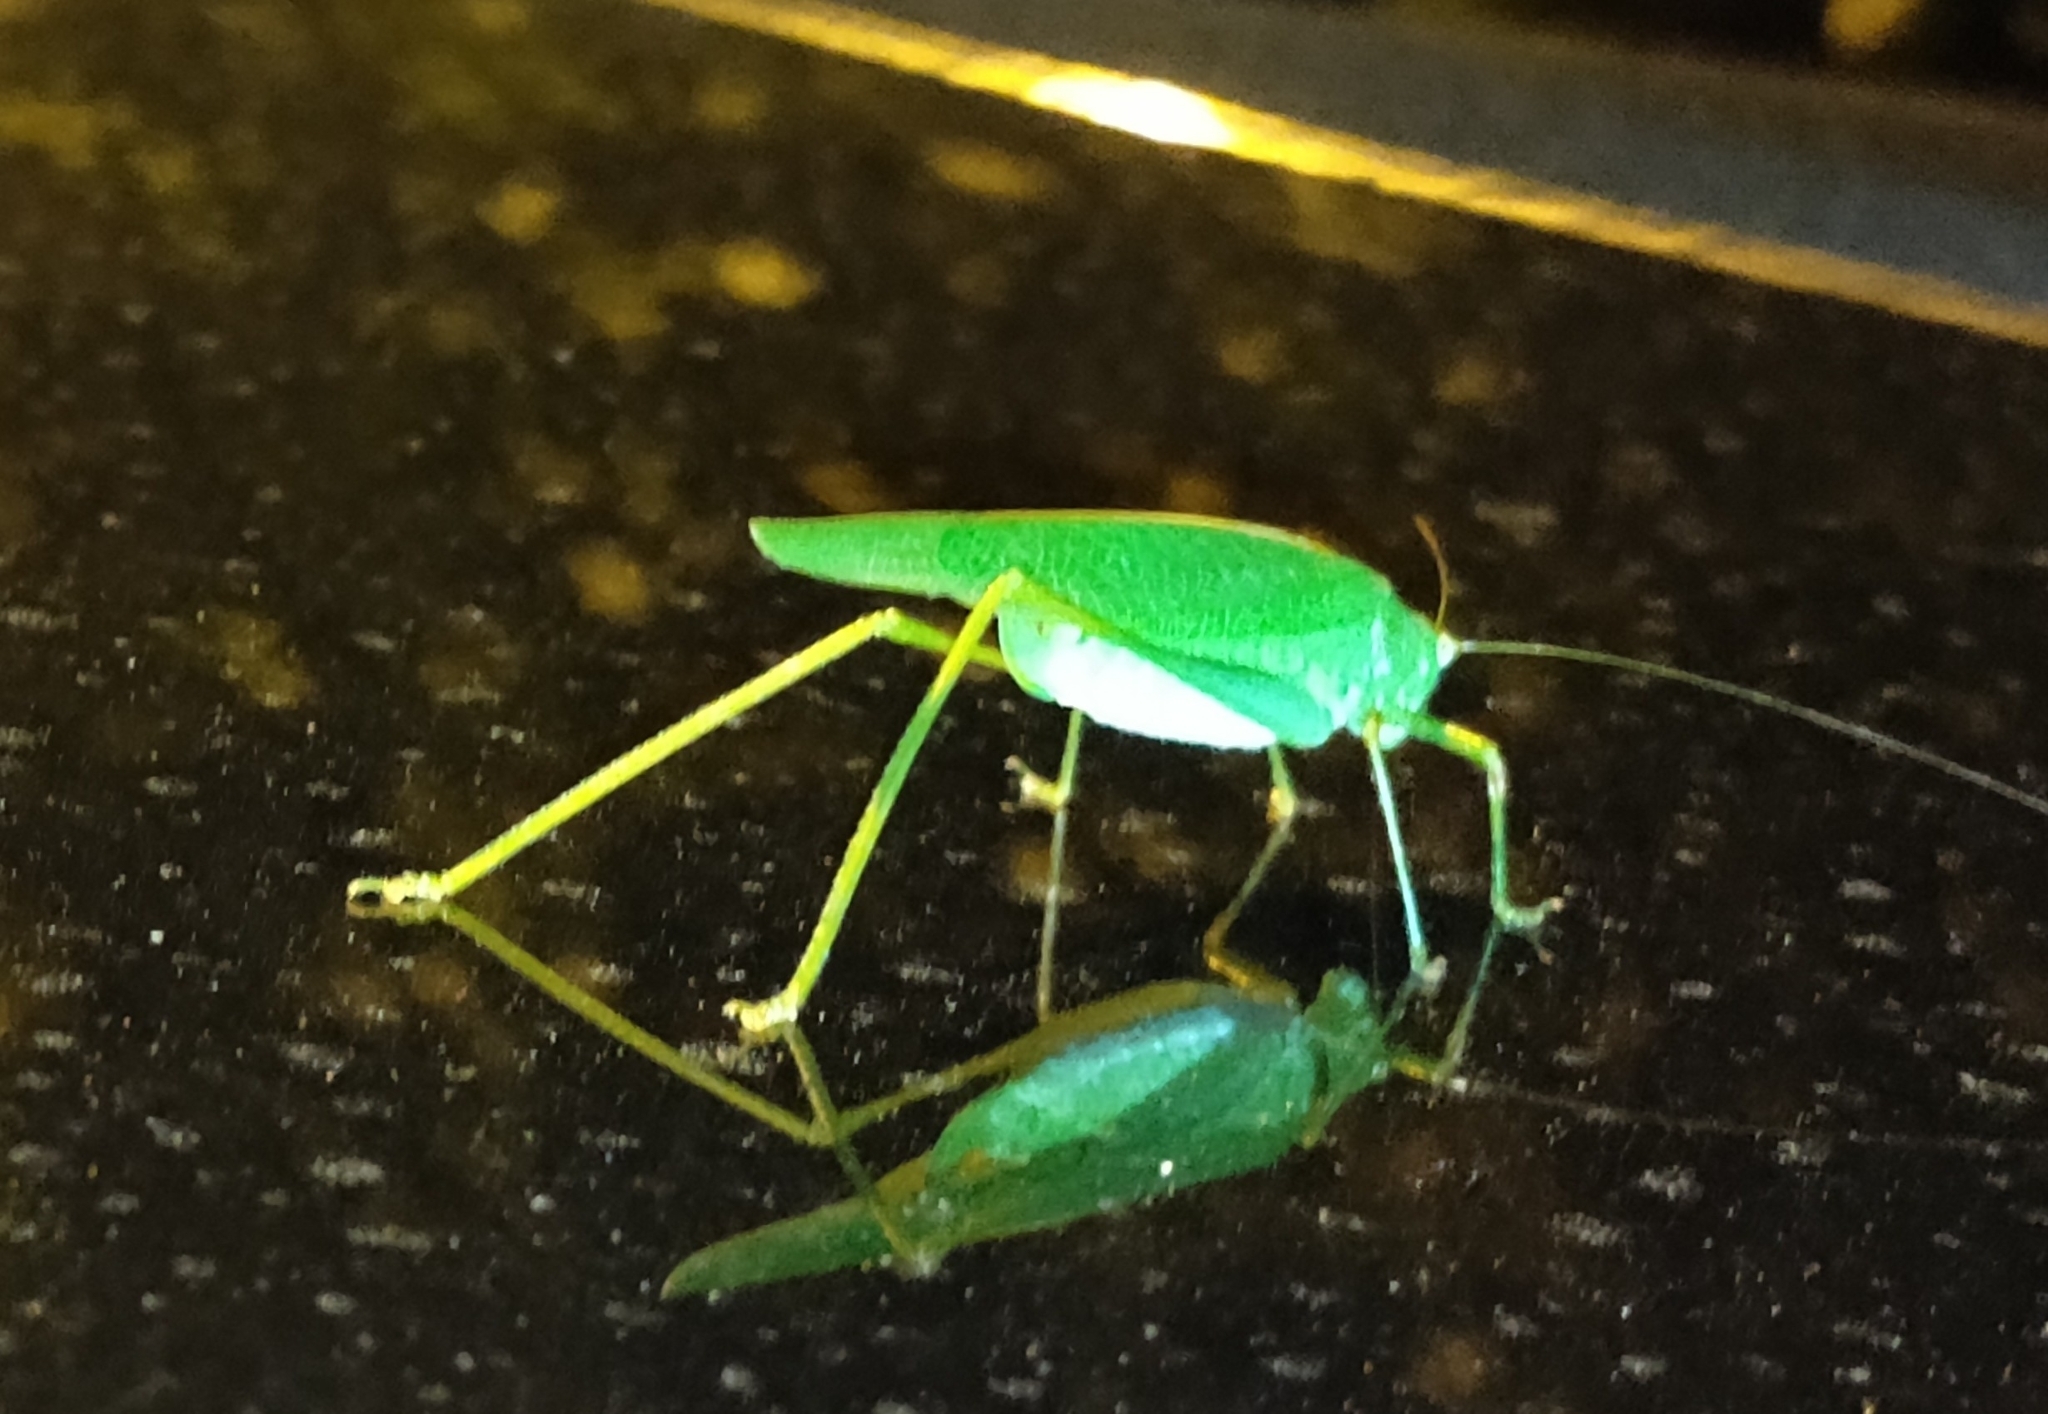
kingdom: Animalia
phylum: Arthropoda
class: Insecta
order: Orthoptera
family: Tettigoniidae
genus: Phaneroptera
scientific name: Phaneroptera nana
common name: Southern sickle bush-cricket
